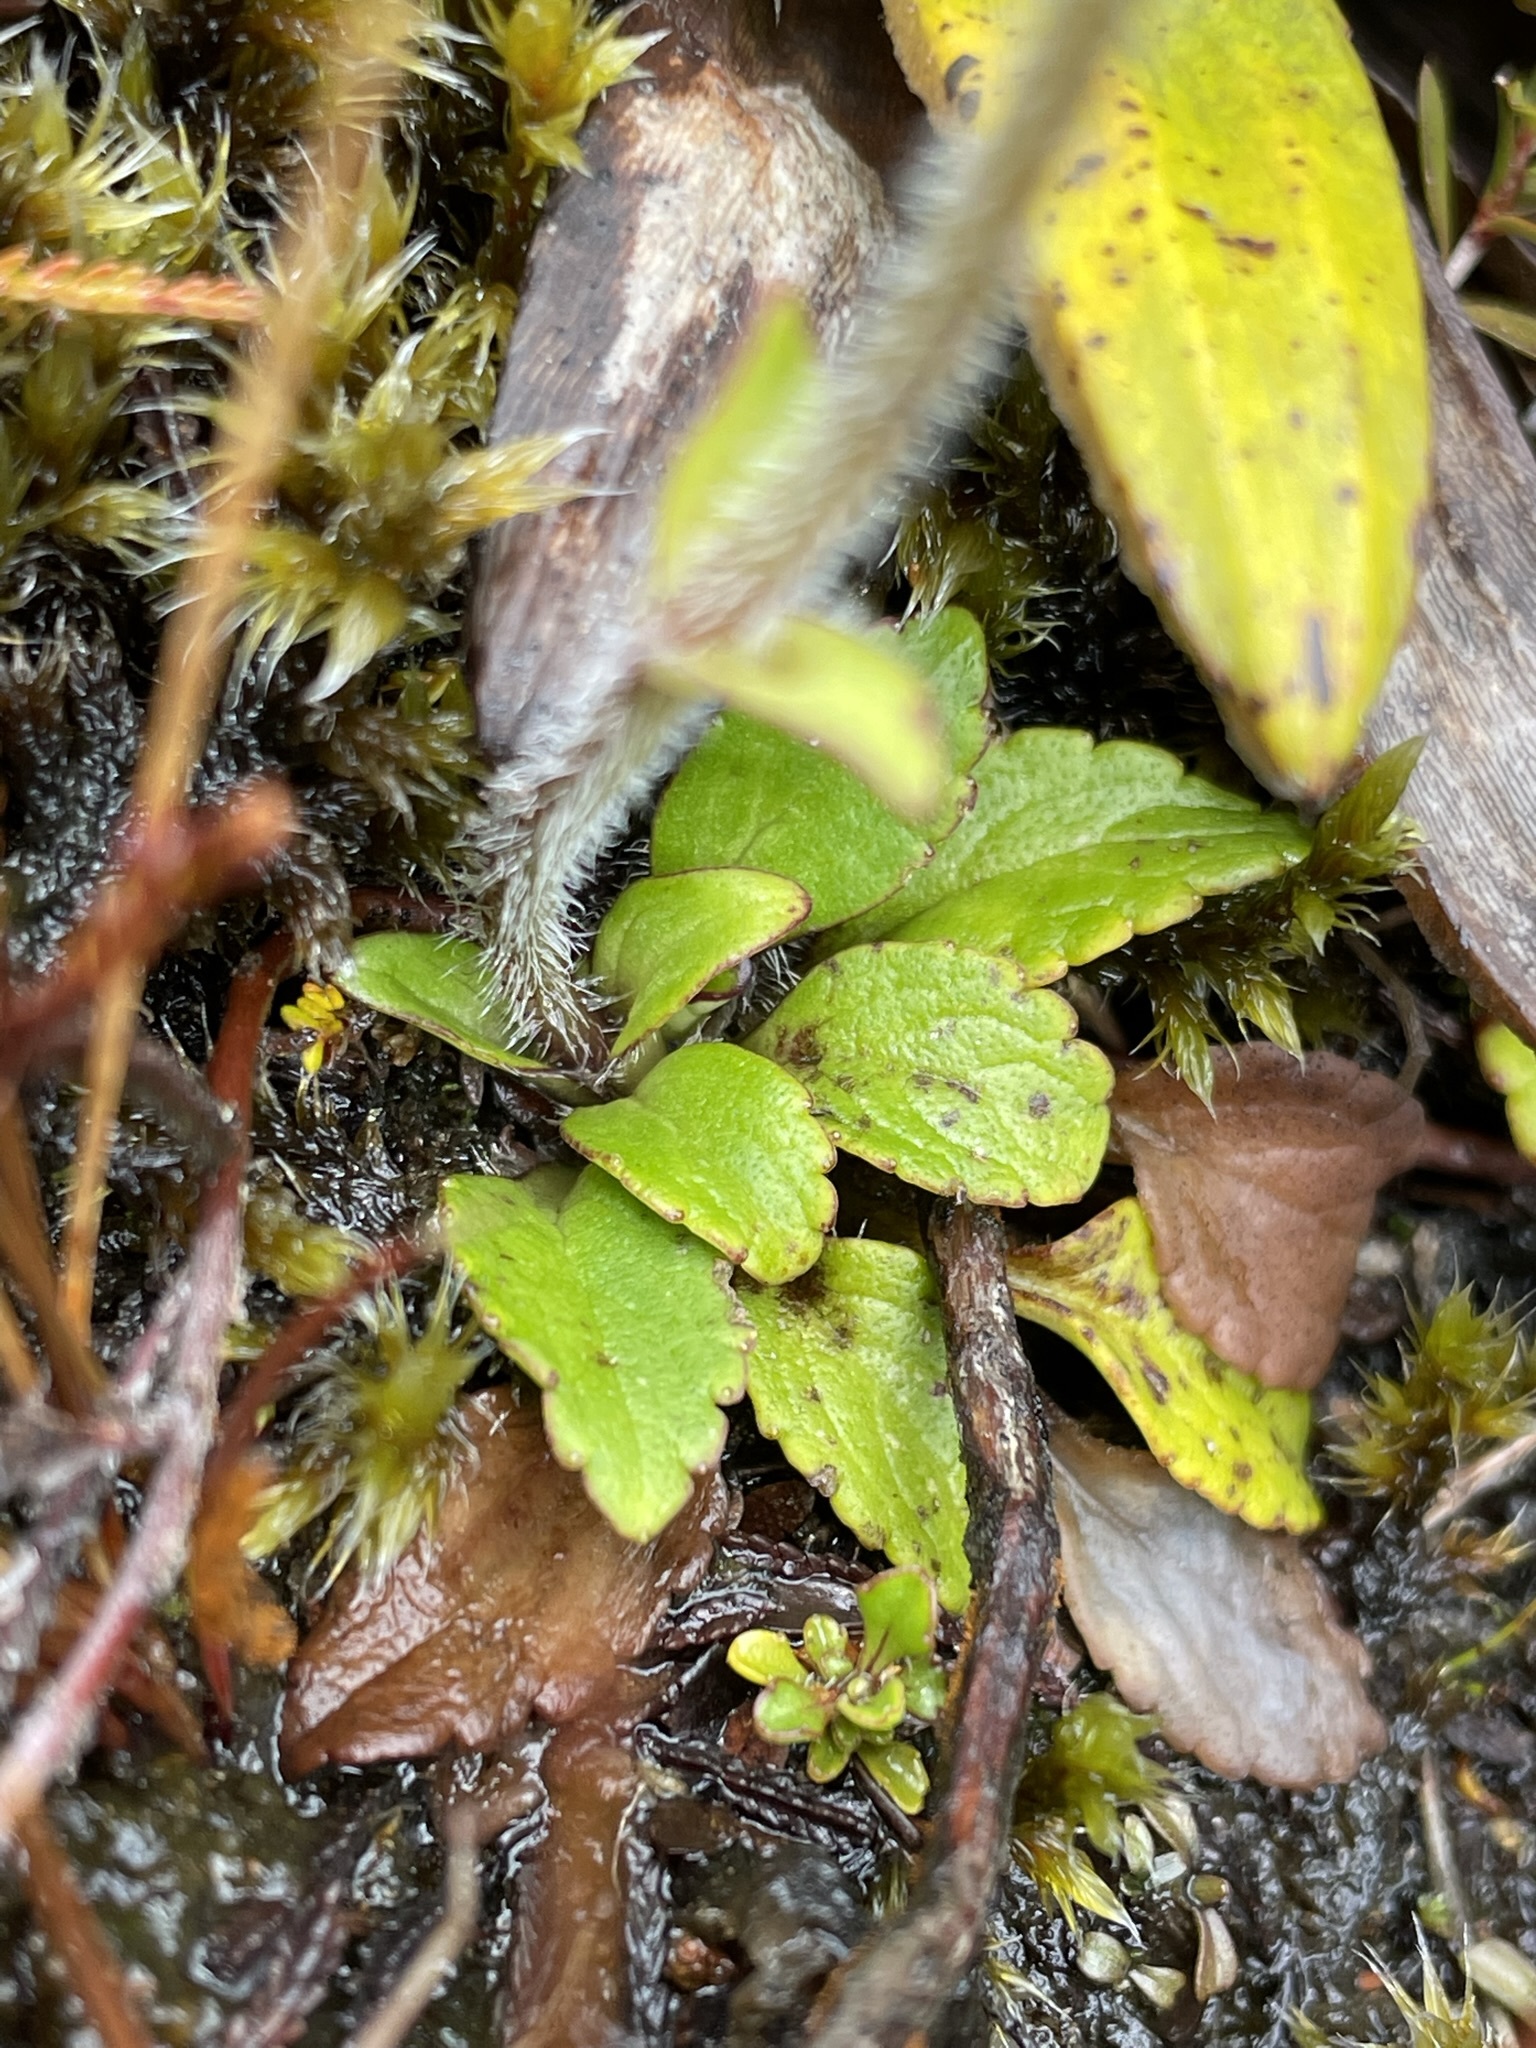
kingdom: Plantae
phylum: Tracheophyta
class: Magnoliopsida
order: Lamiales
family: Plantaginaceae
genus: Ourisia
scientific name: Ourisia vulcanica
